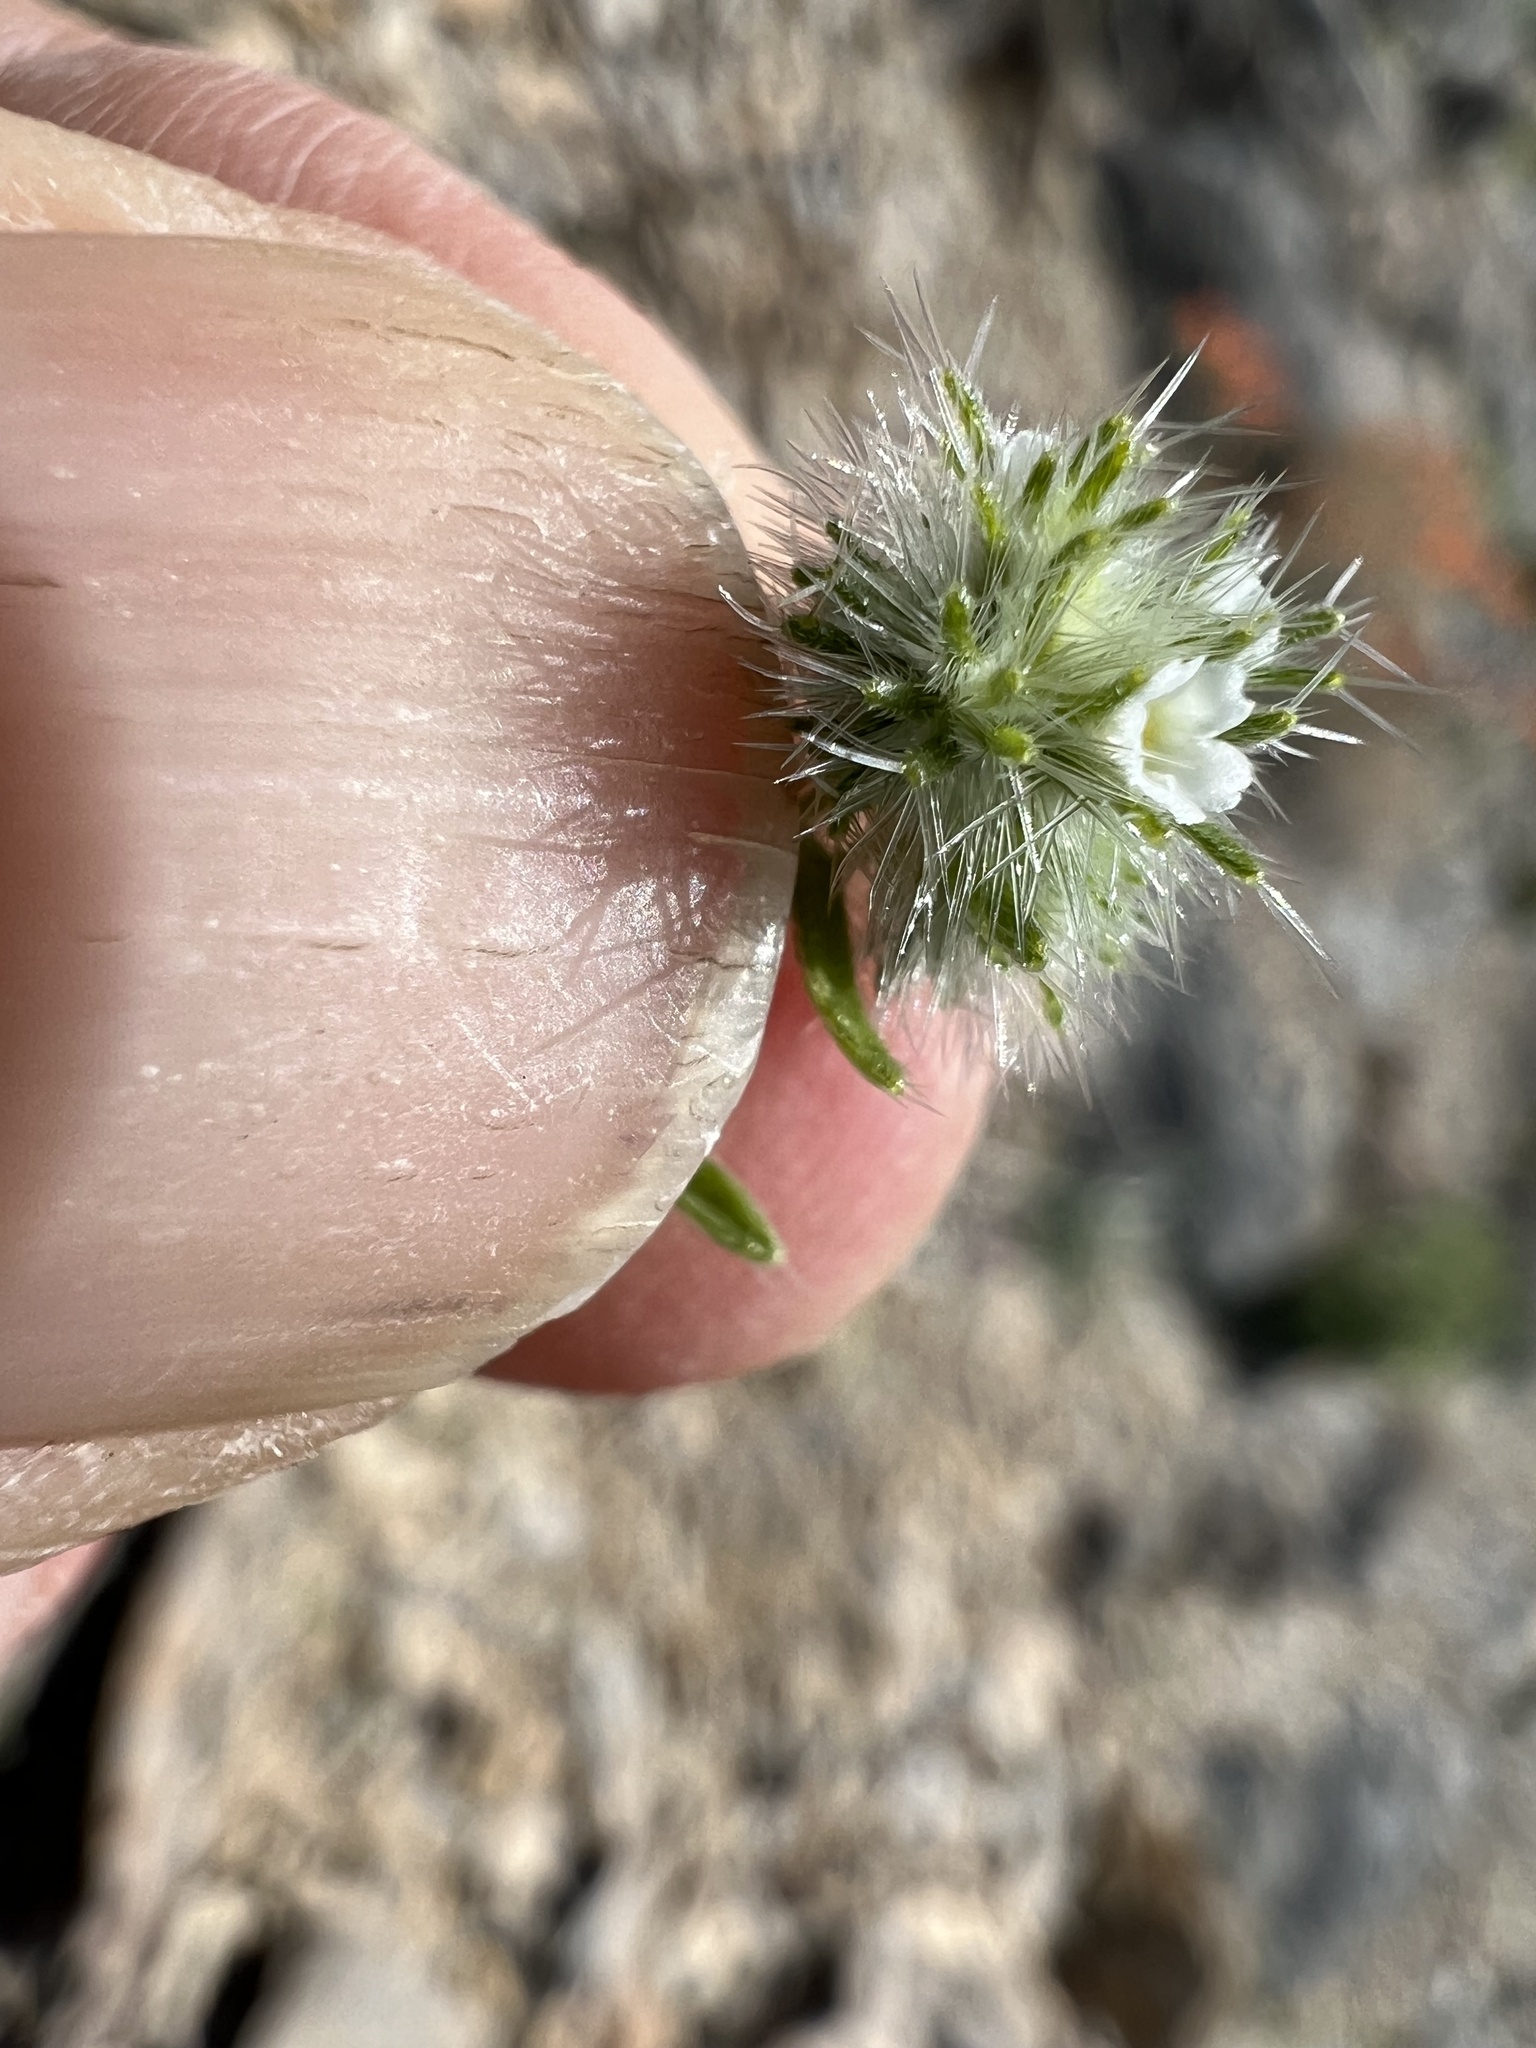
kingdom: Plantae
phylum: Tracheophyta
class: Magnoliopsida
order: Boraginales
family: Boraginaceae
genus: Cryptantha
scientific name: Cryptantha nevadensis
